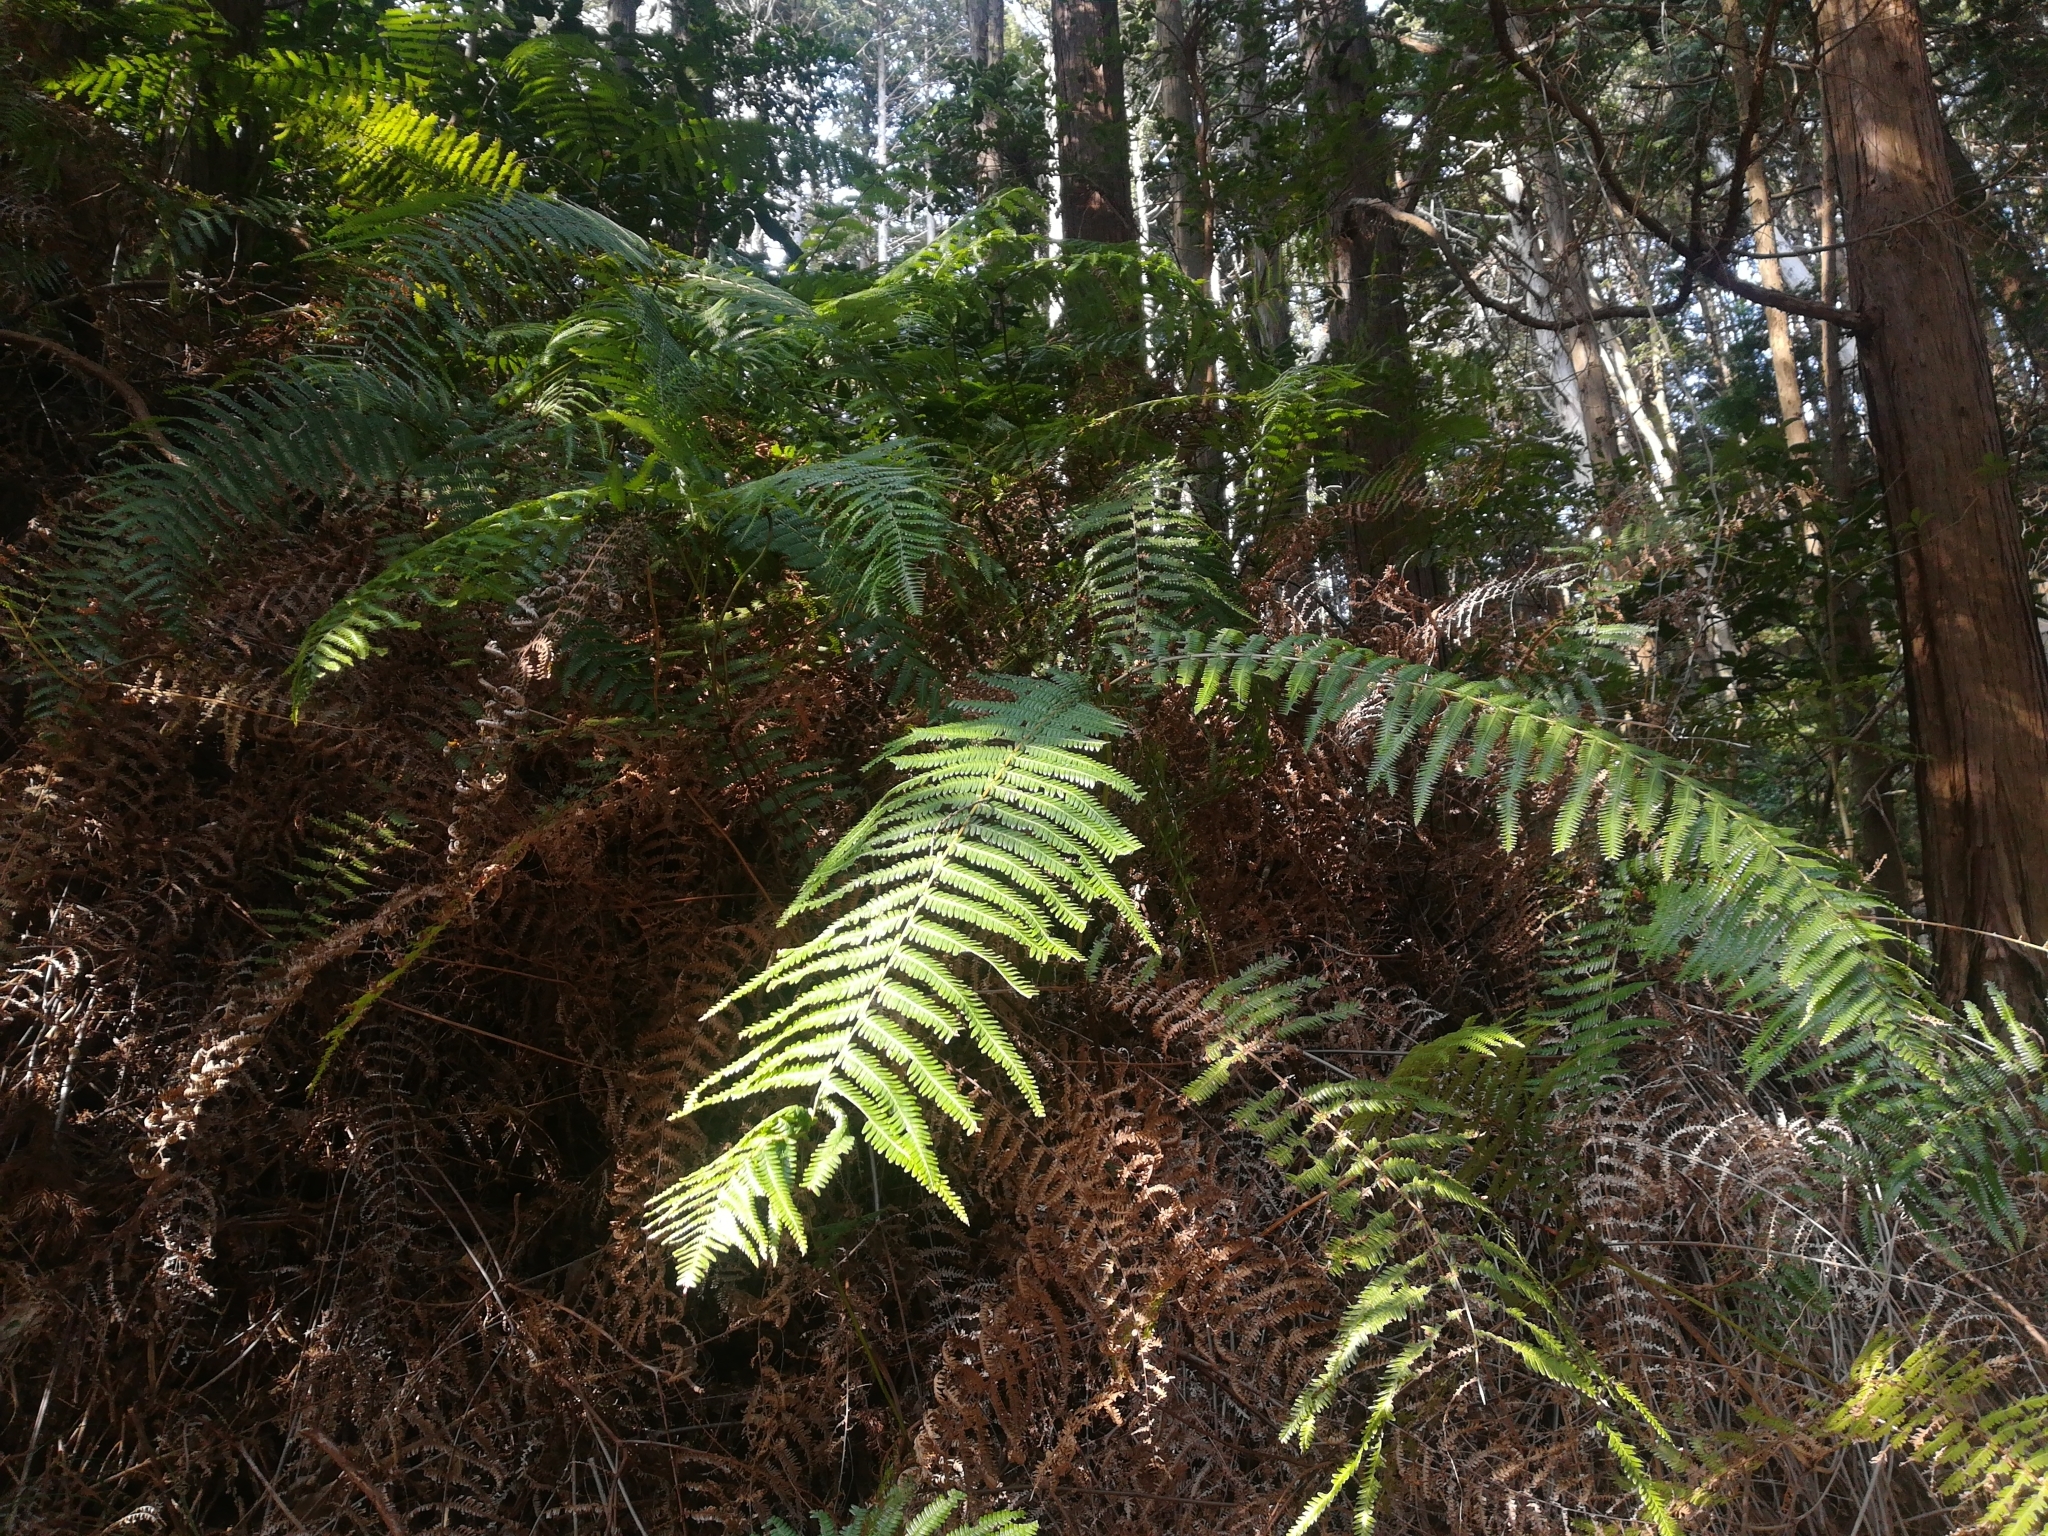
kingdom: Plantae
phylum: Tracheophyta
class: Polypodiopsida
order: Gleicheniales
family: Gleicheniaceae
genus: Diplopterygium
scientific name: Diplopterygium glaucum
